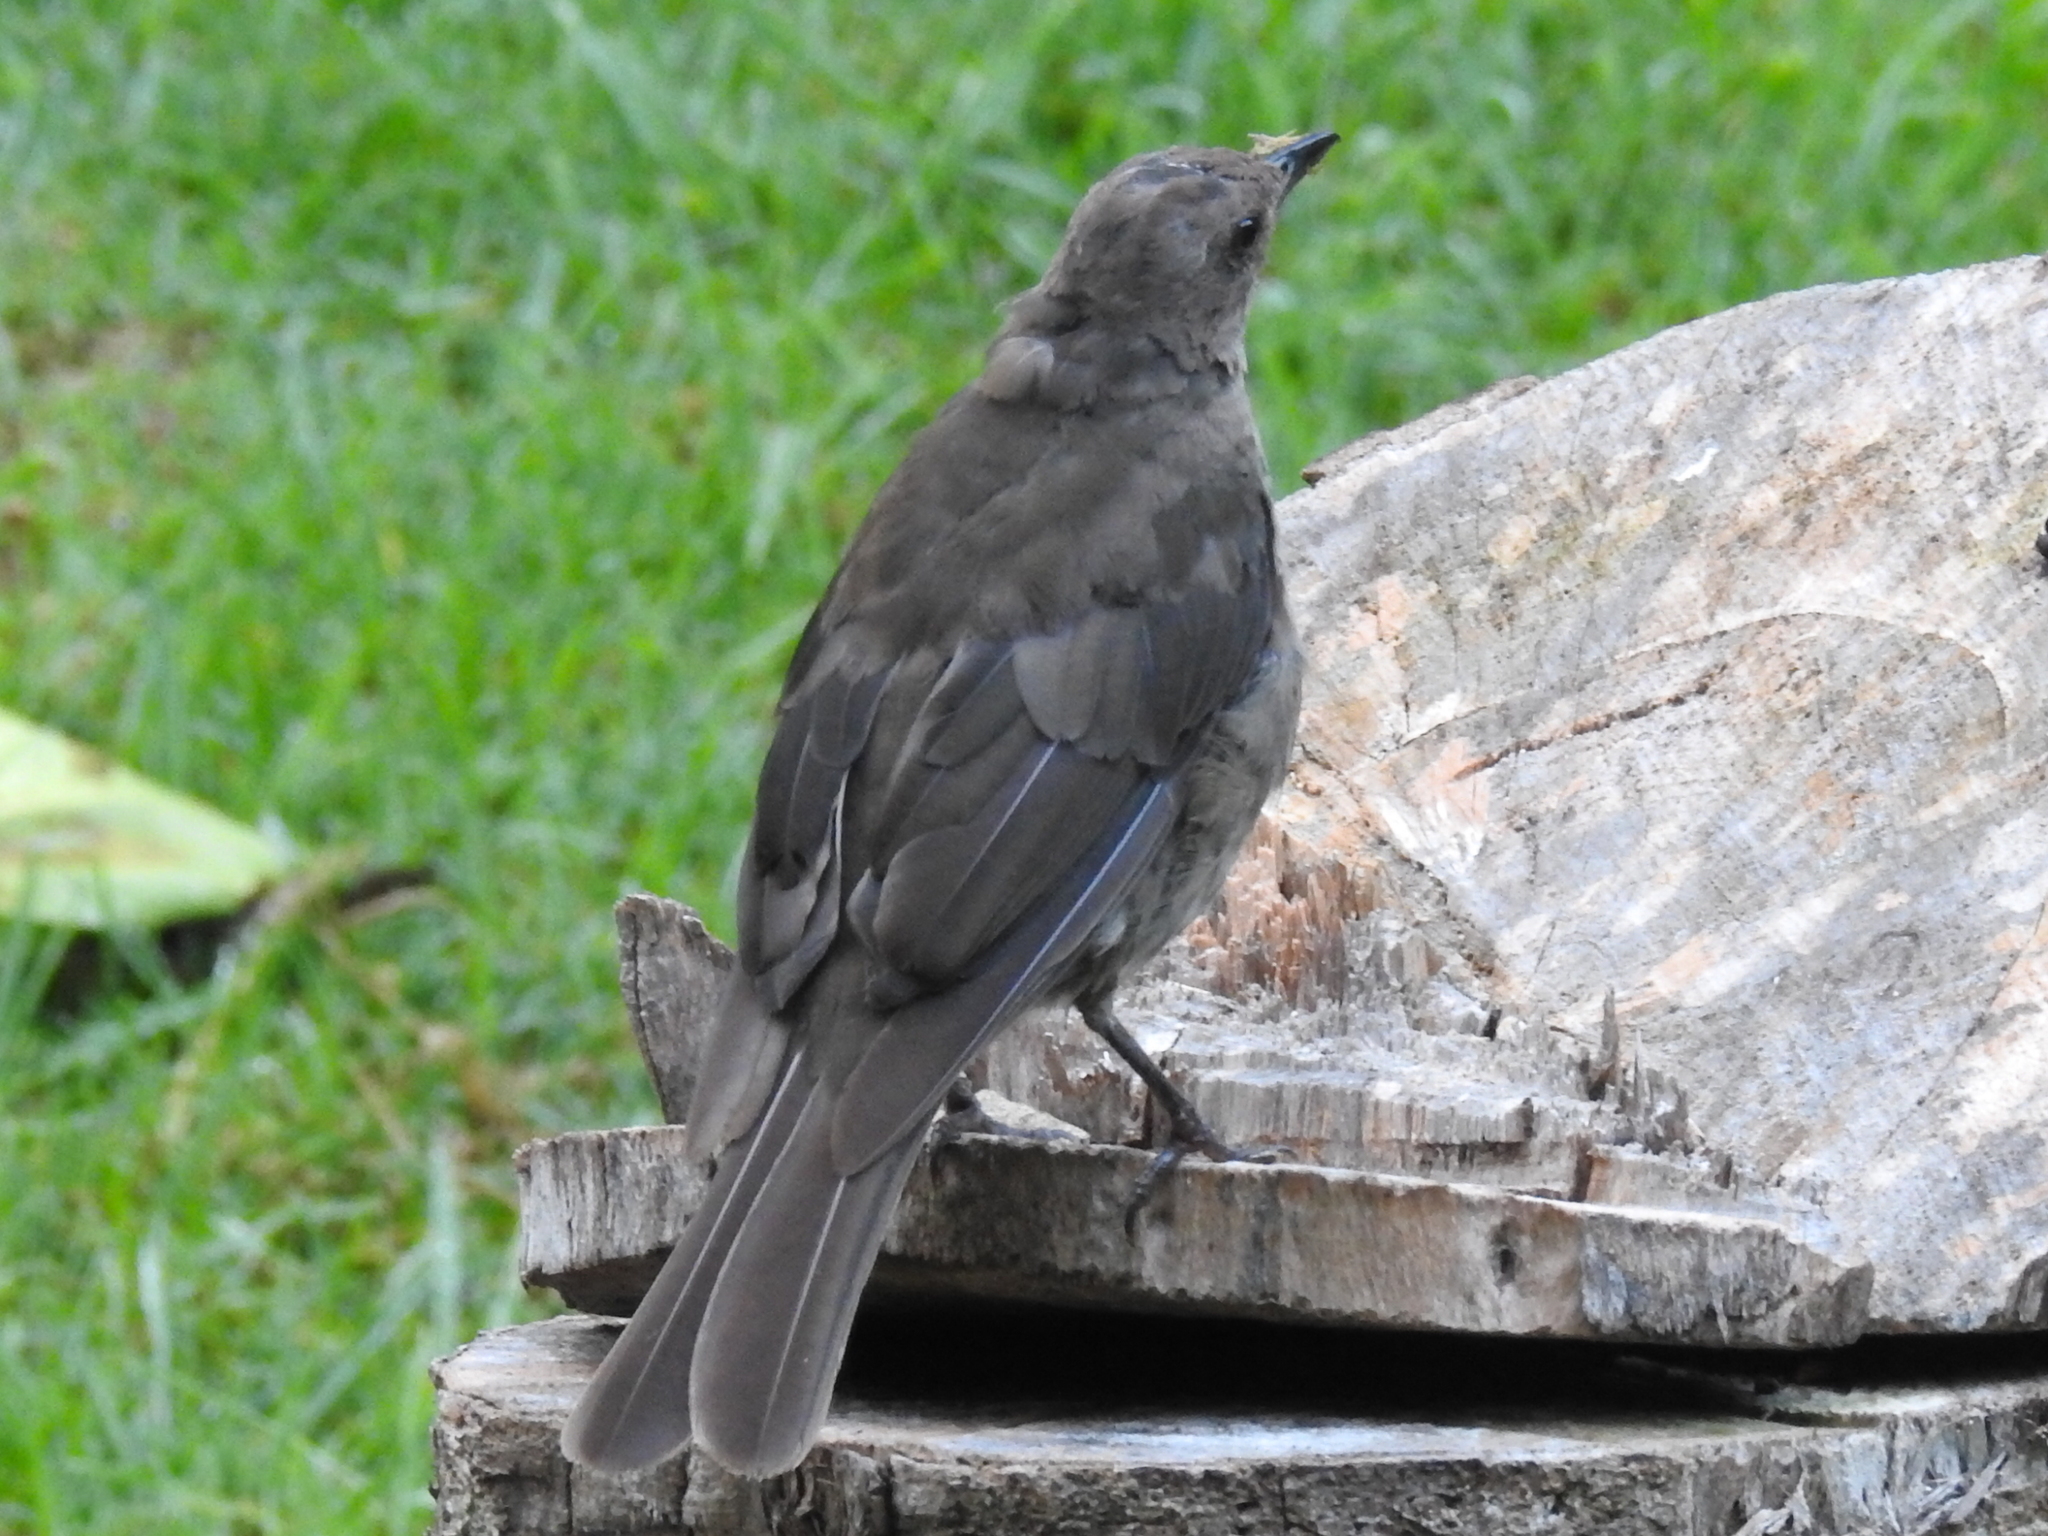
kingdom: Animalia
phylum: Chordata
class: Aves
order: Passeriformes
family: Turdidae
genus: Turdus
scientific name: Turdus plebejus
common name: Mountain thrush
